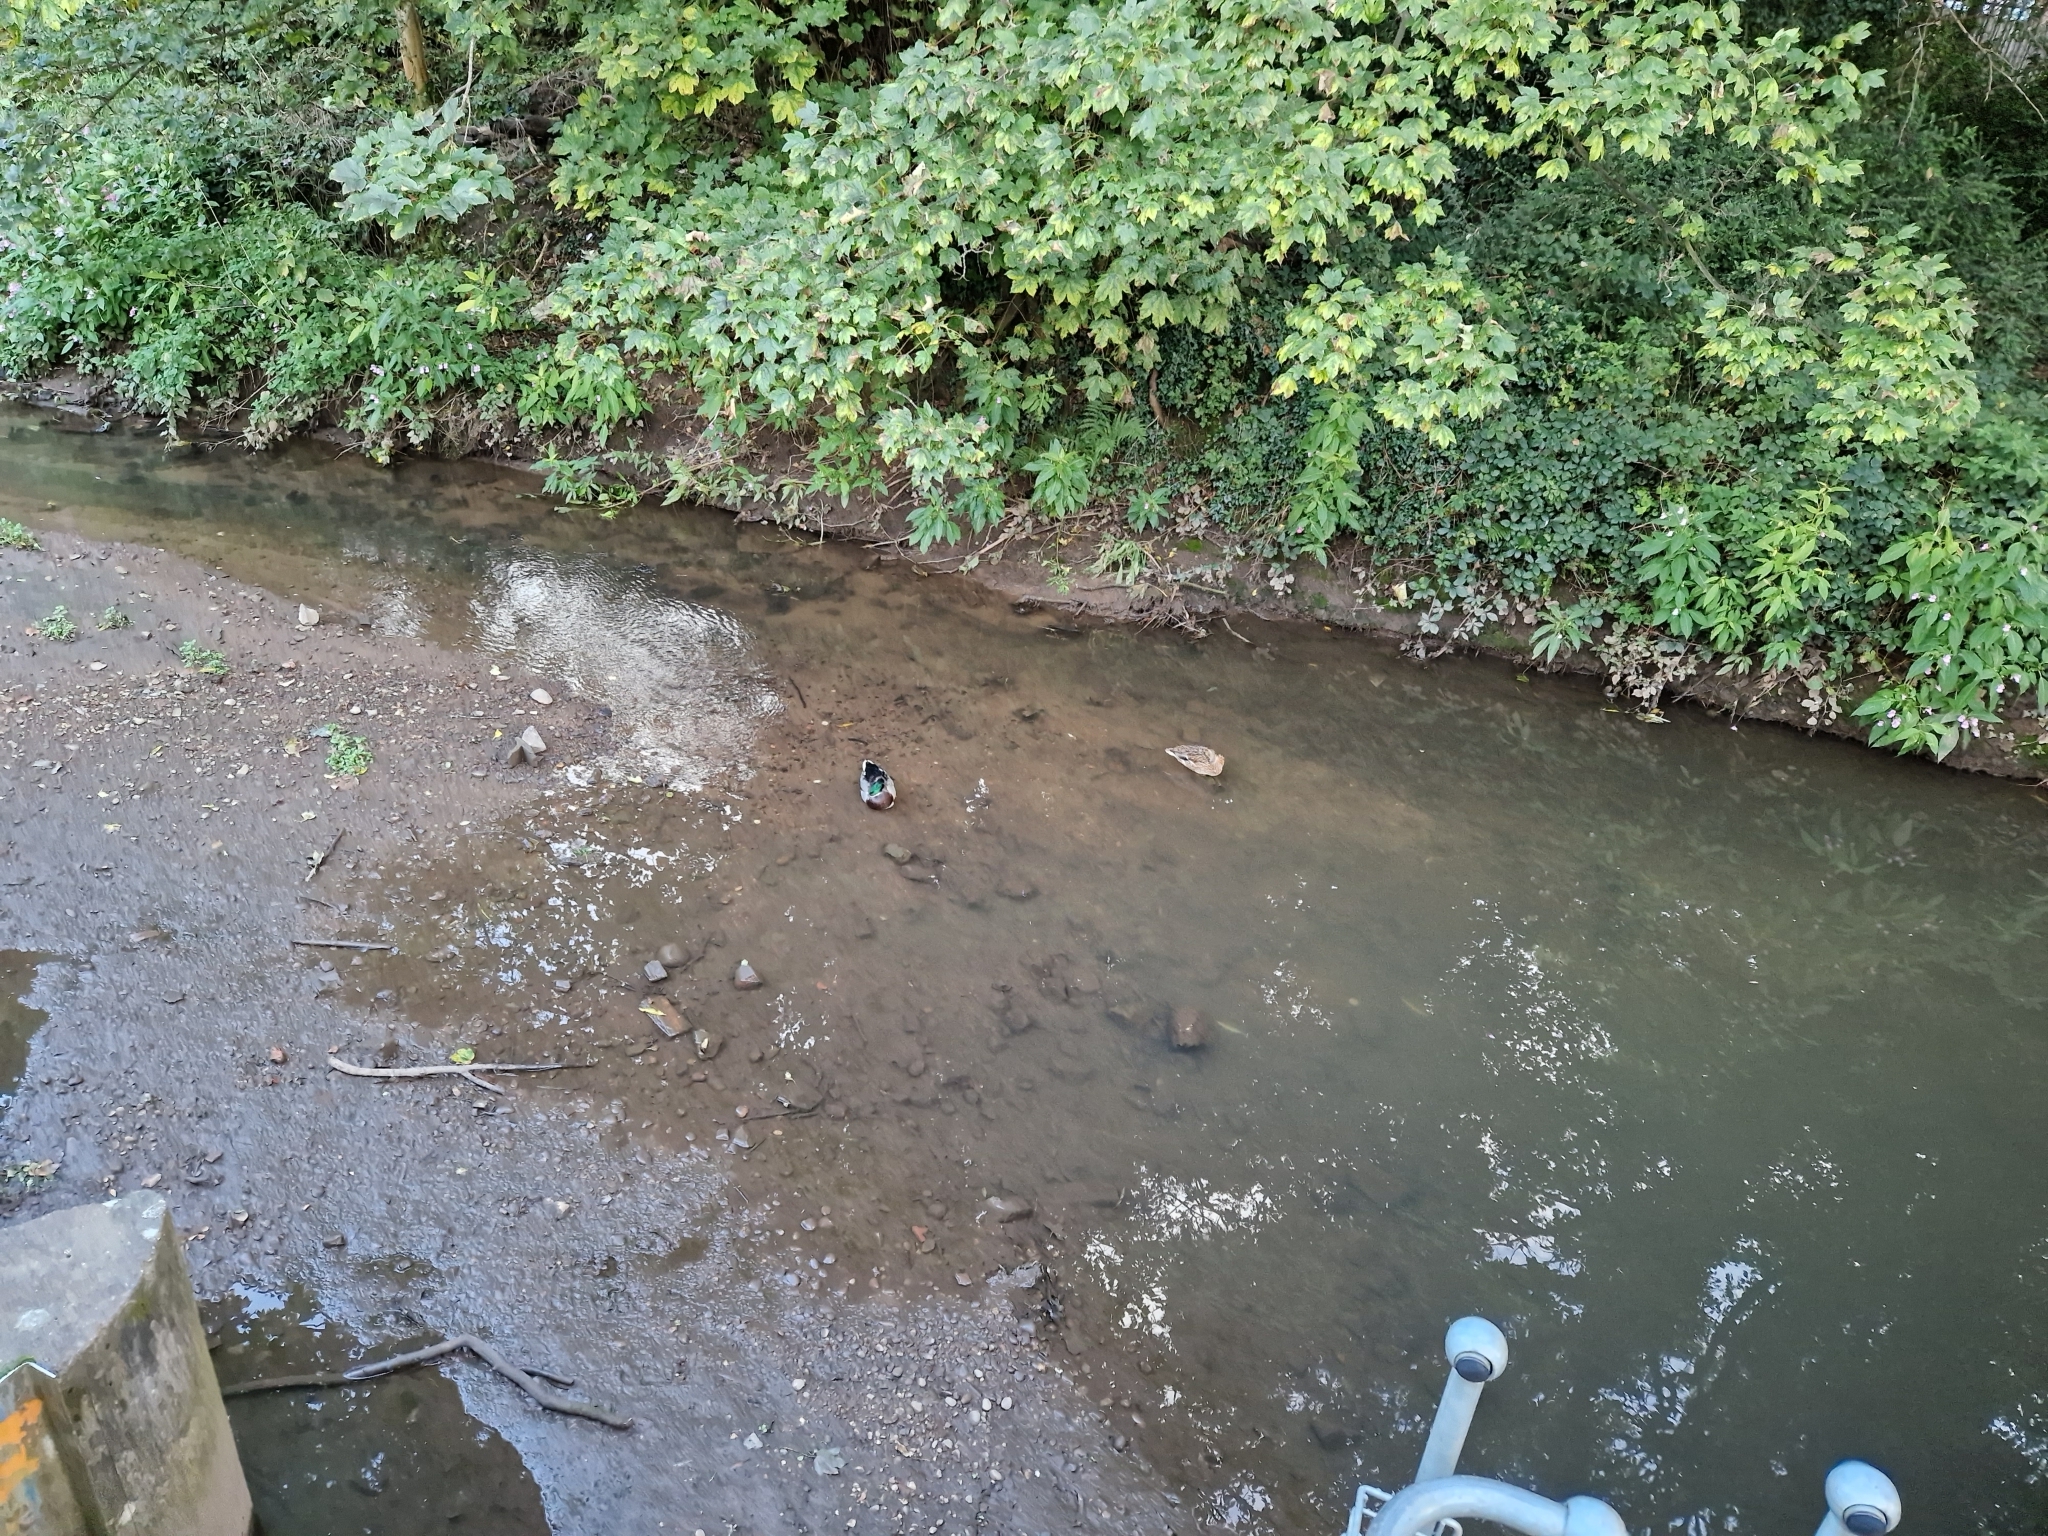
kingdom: Animalia
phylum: Chordata
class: Aves
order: Anseriformes
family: Anatidae
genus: Anas
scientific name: Anas platyrhynchos
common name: Mallard
